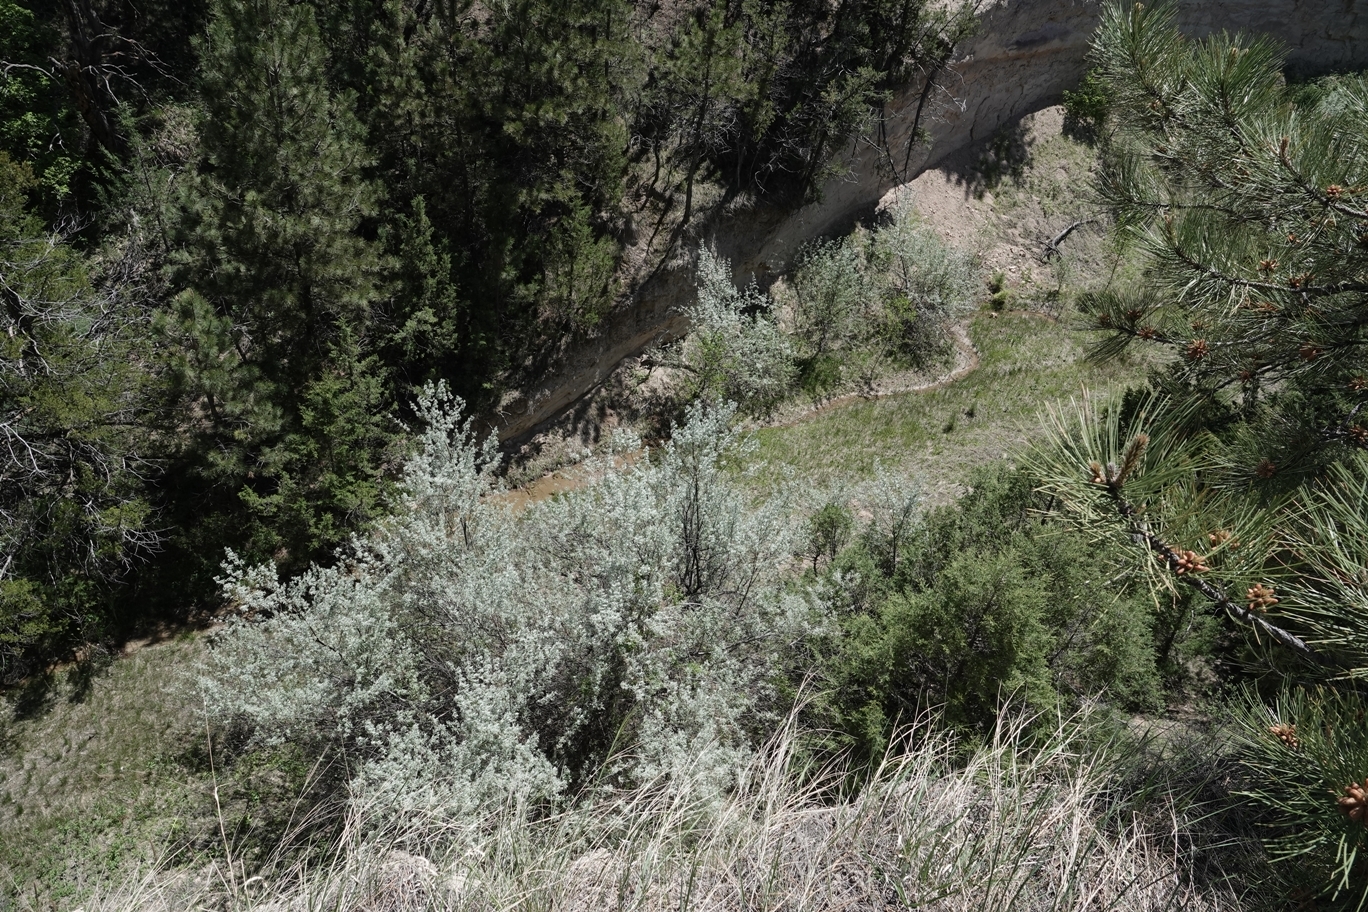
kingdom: Plantae
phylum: Tracheophyta
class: Magnoliopsida
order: Rosales
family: Elaeagnaceae
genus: Elaeagnus
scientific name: Elaeagnus angustifolia
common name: Russian olive
